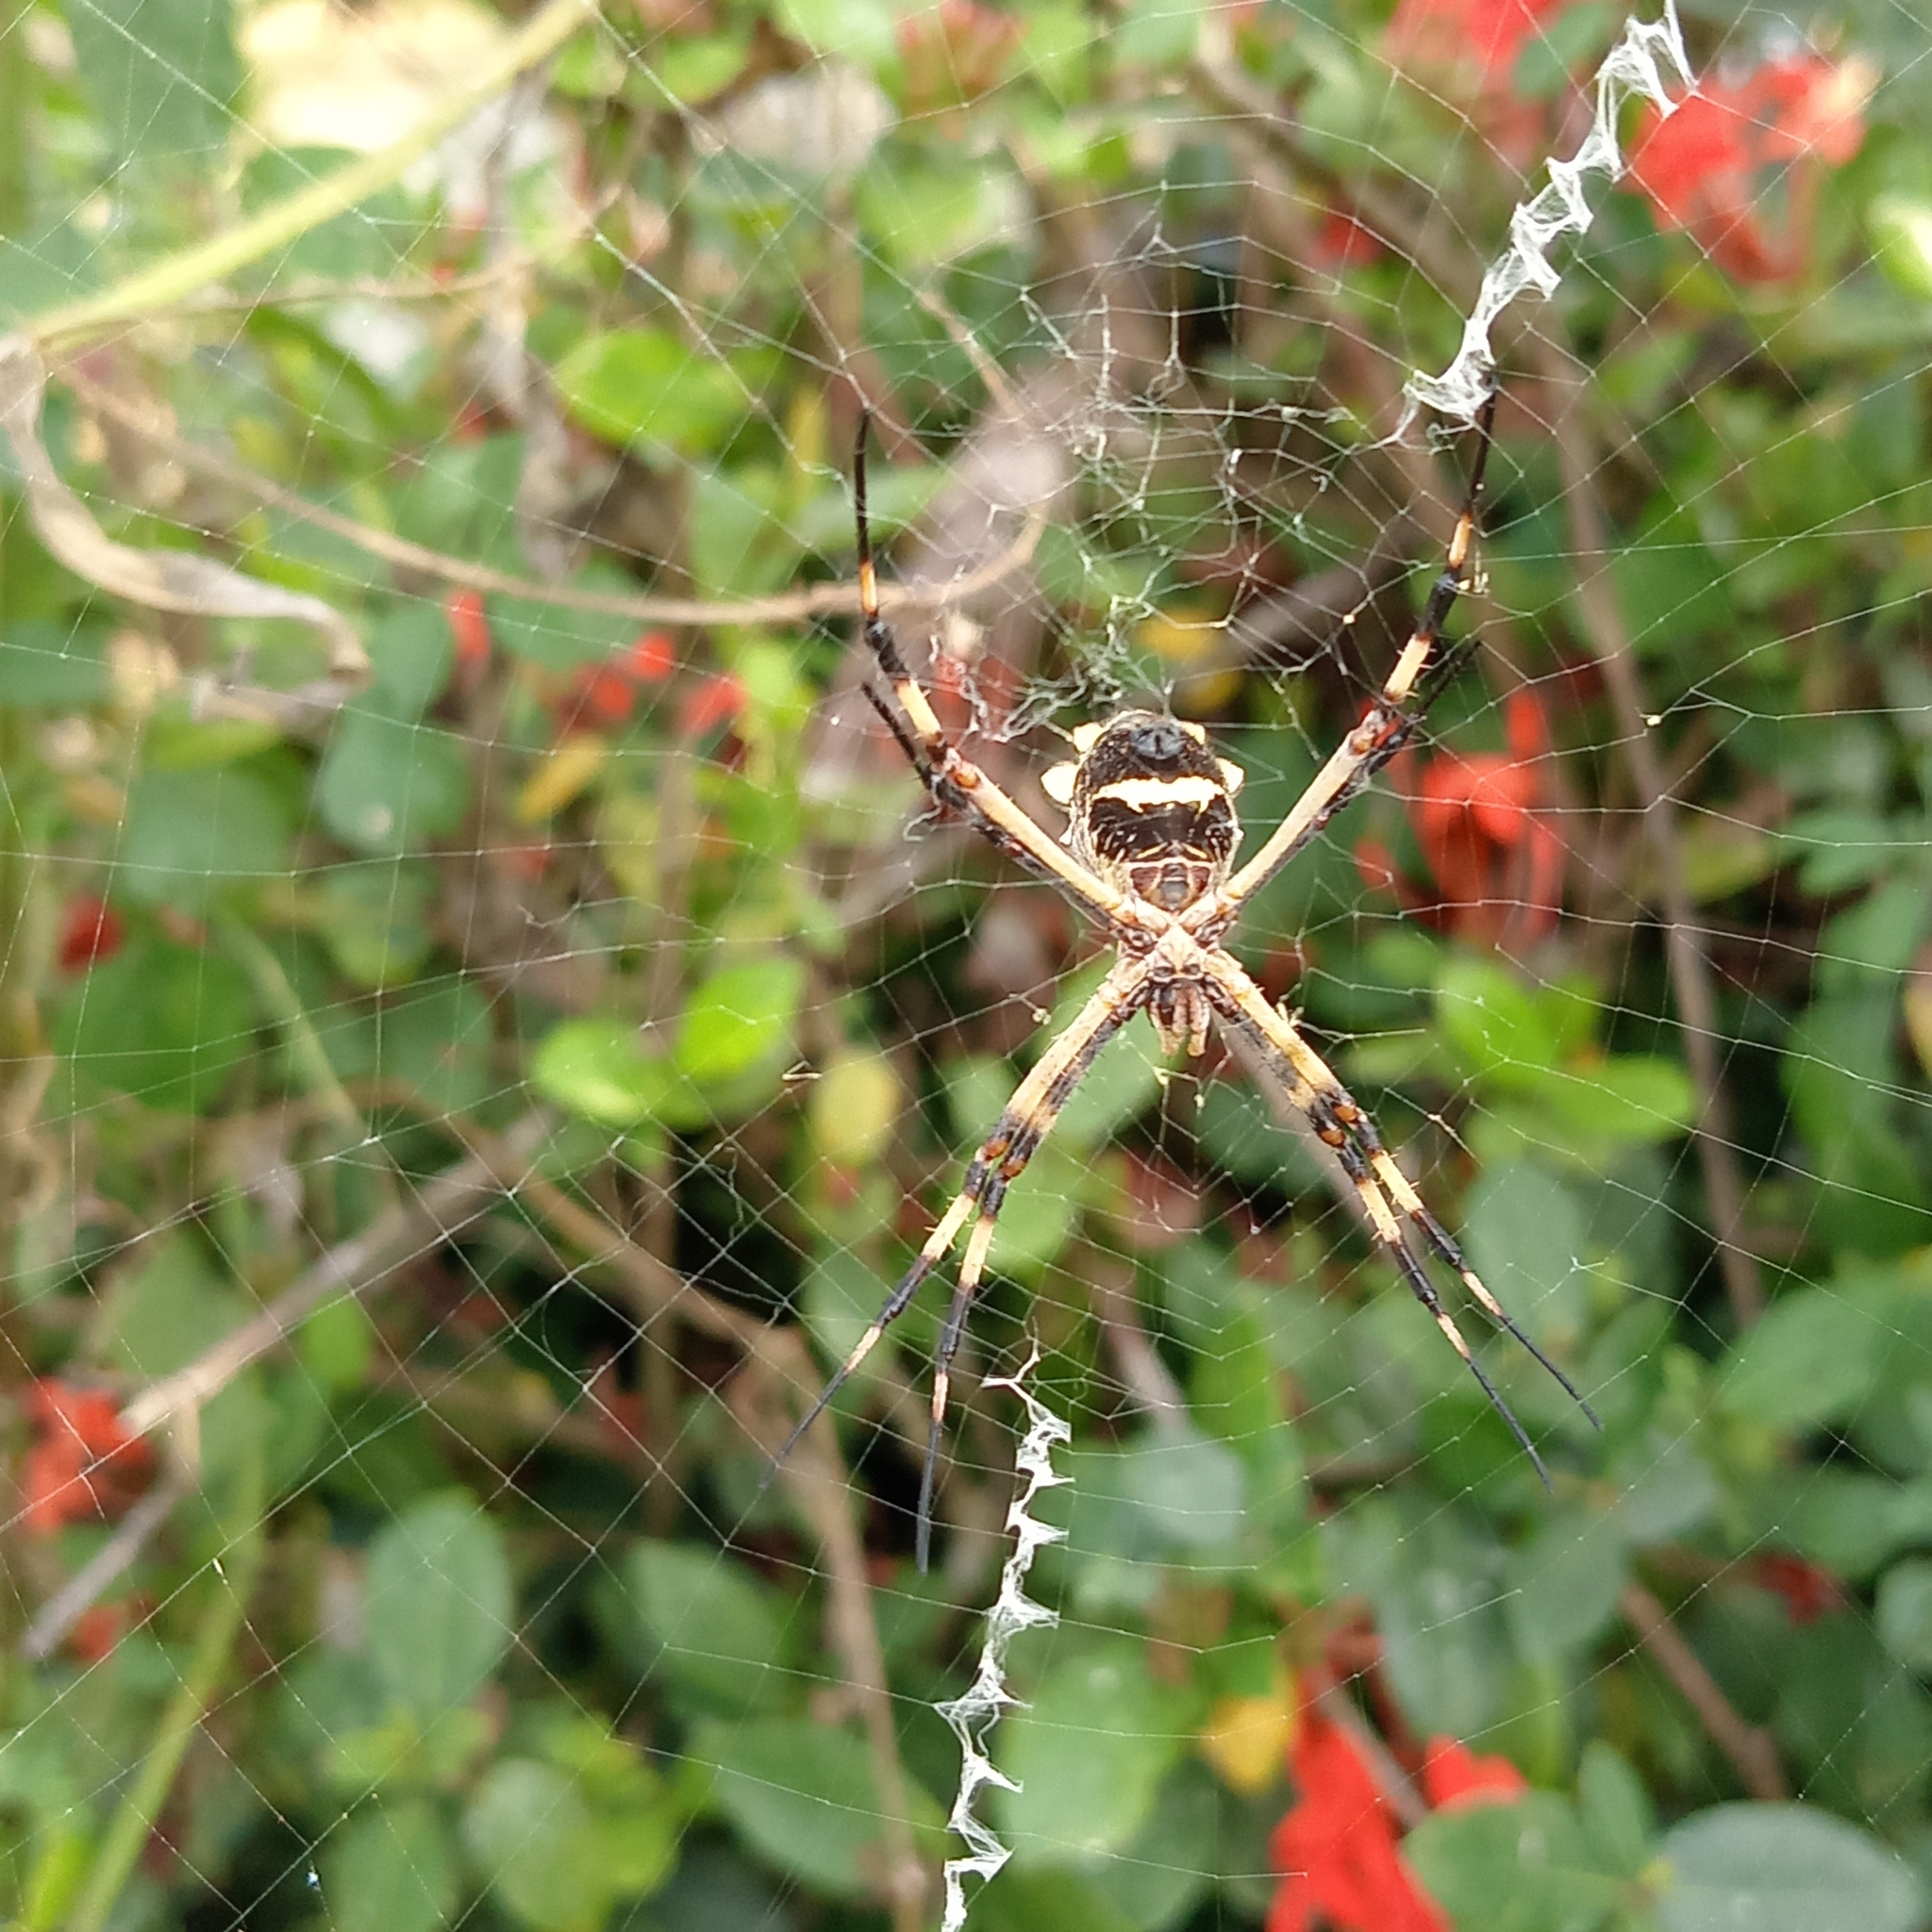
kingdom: Animalia
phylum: Arthropoda
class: Arachnida
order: Araneae
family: Araneidae
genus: Argiope
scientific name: Argiope argentata
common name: Orb weavers
